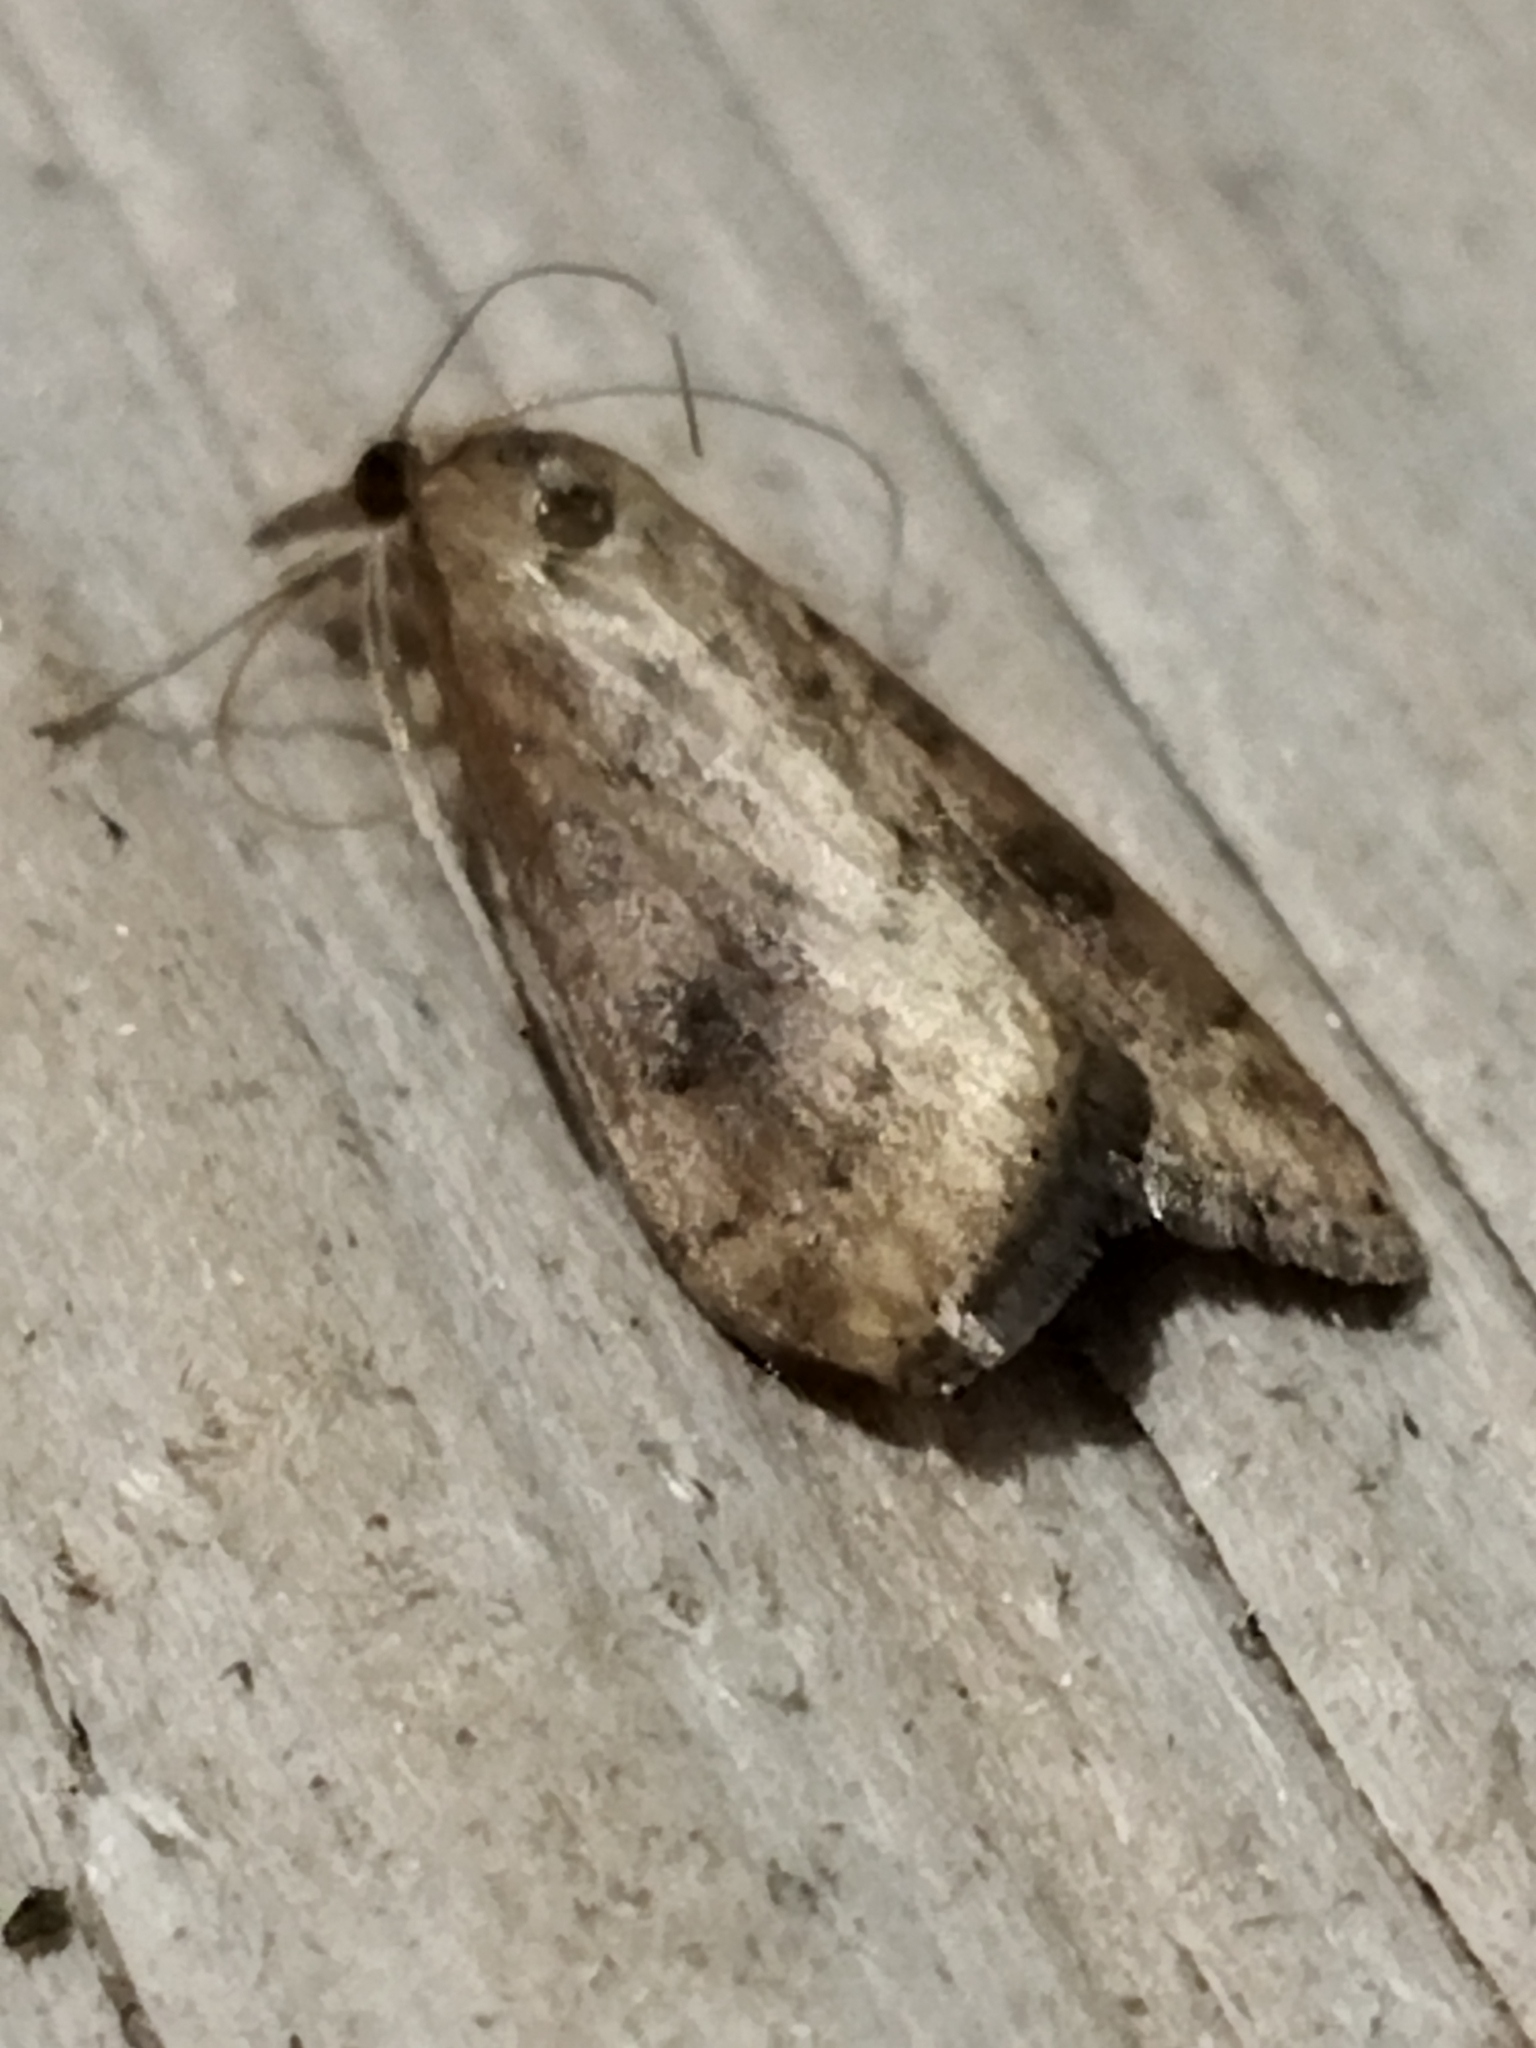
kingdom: Animalia
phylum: Arthropoda
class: Insecta
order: Lepidoptera
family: Crambidae
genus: Udea
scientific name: Udea ferrugalis
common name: Rusty dot
